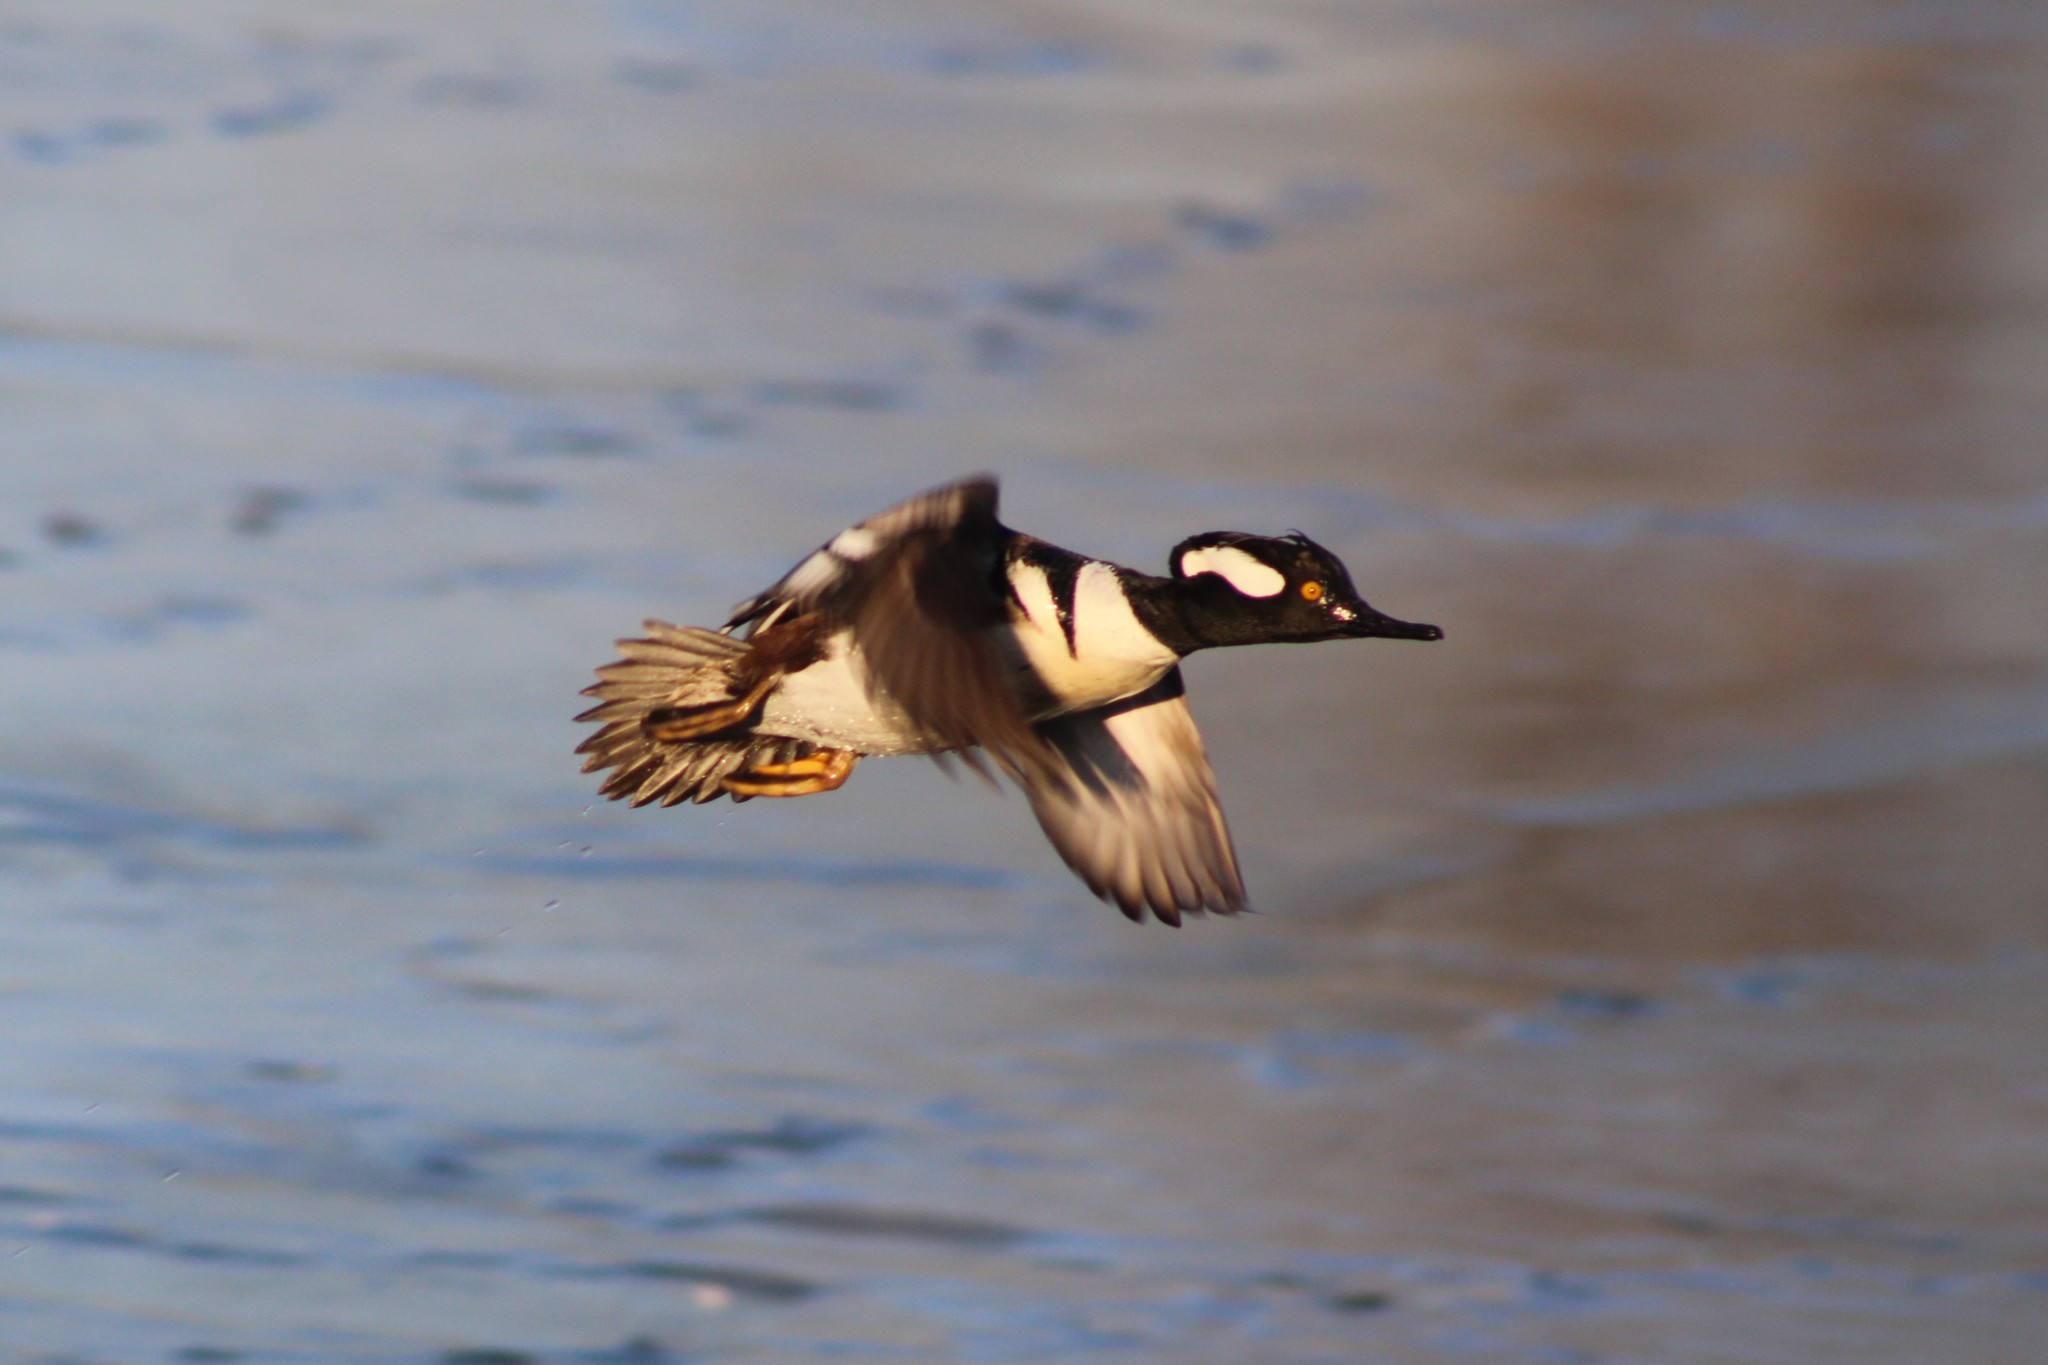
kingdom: Animalia
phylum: Chordata
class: Aves
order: Anseriformes
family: Anatidae
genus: Lophodytes
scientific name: Lophodytes cucullatus
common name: Hooded merganser
